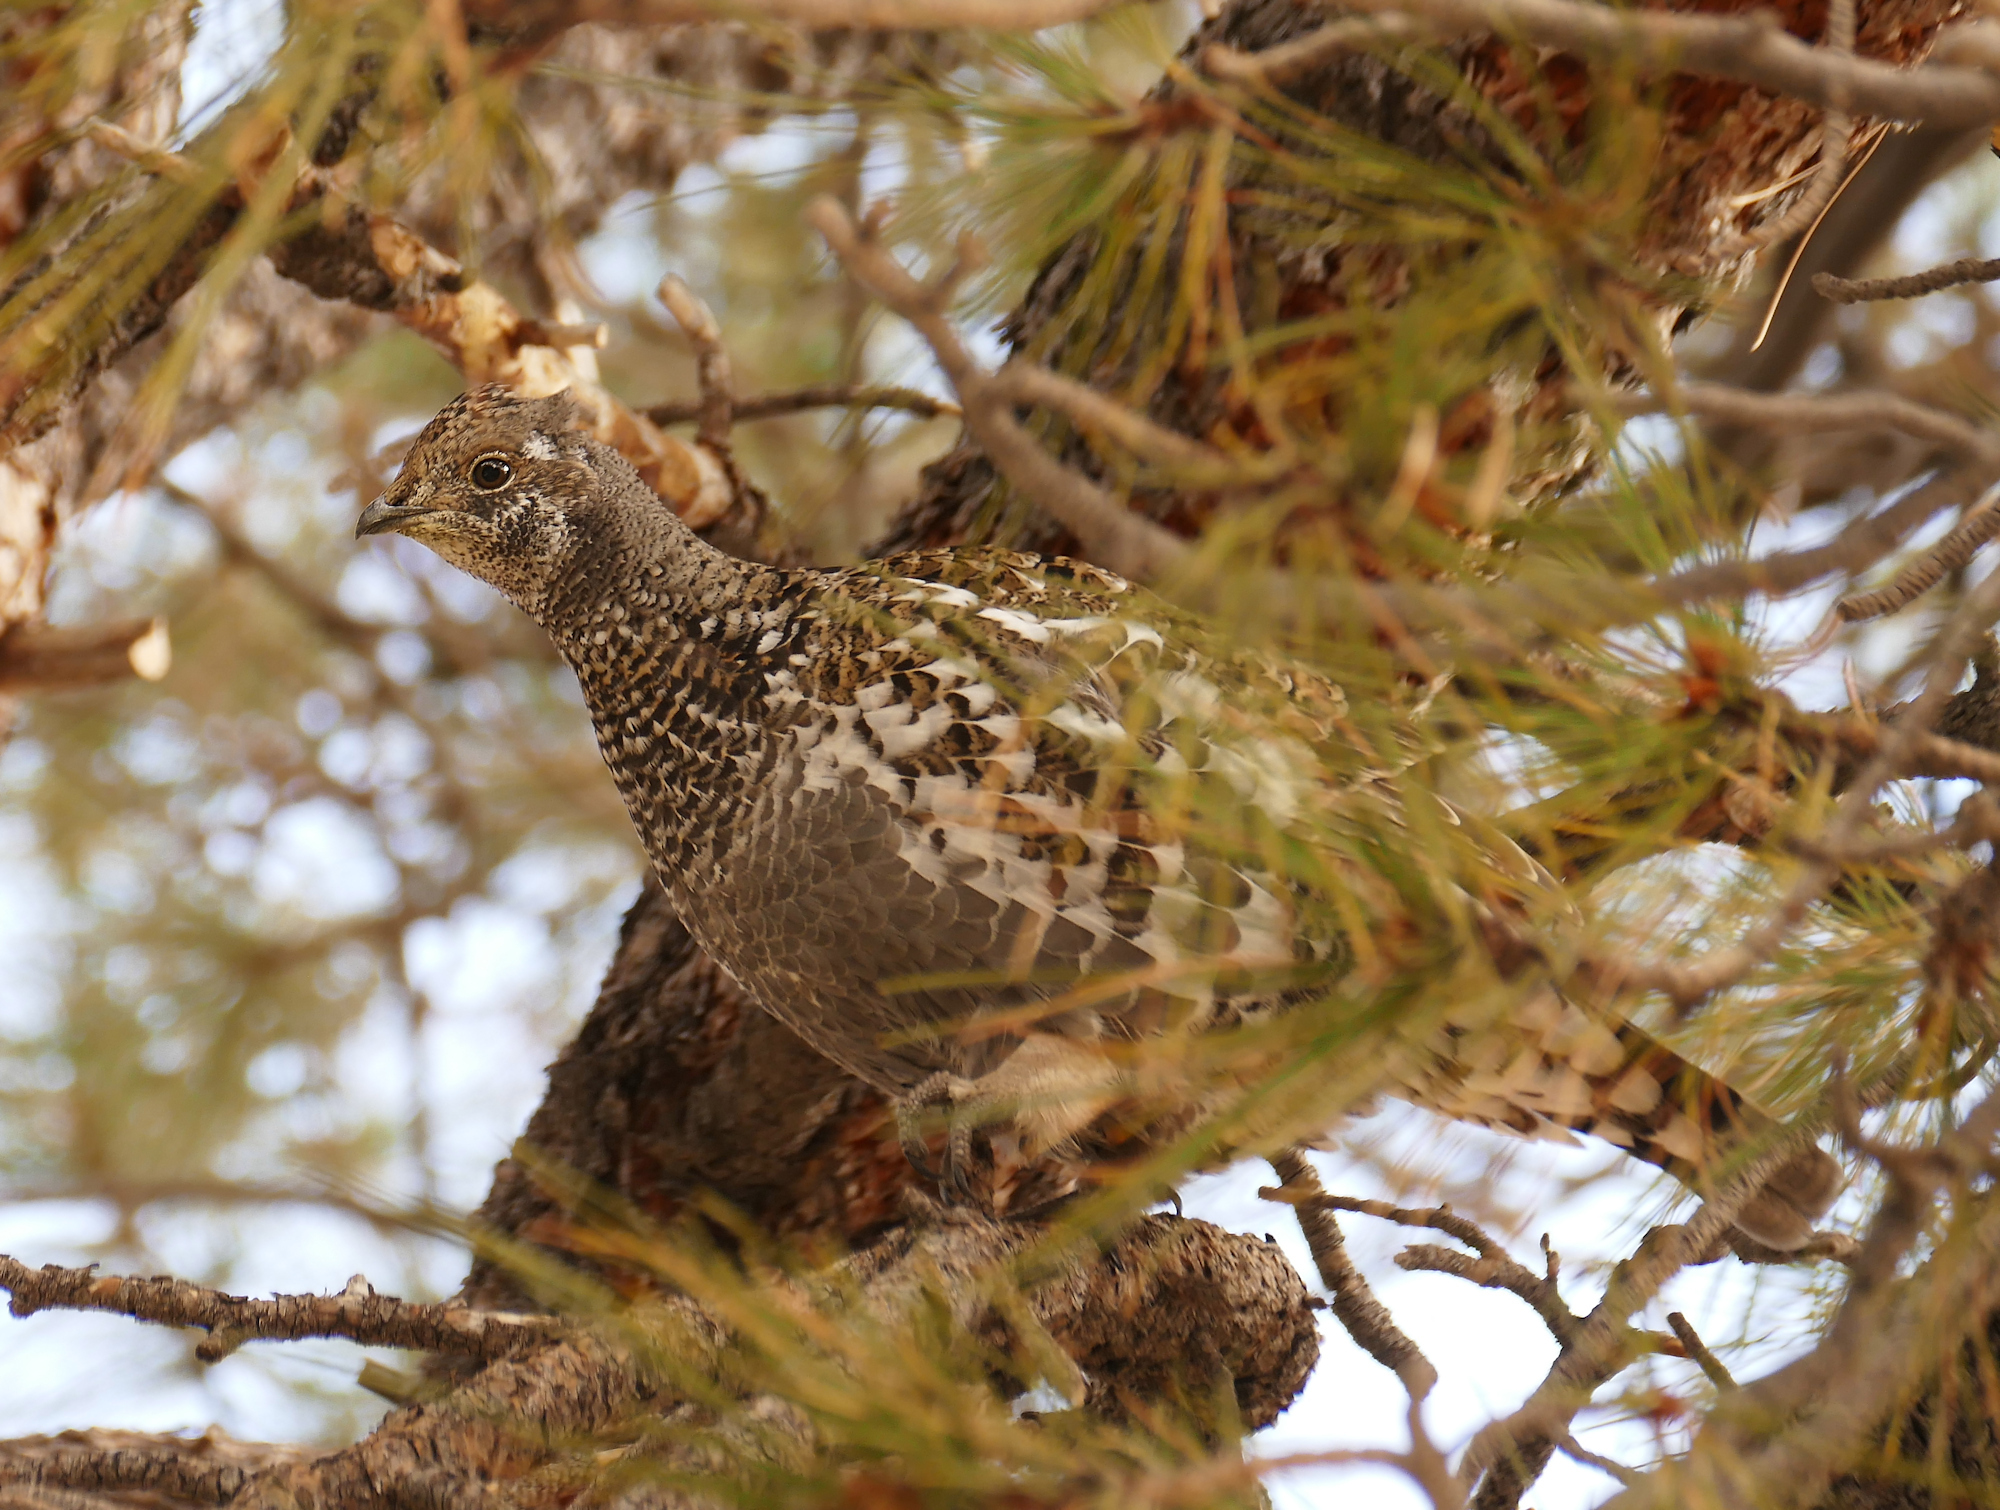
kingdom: Animalia
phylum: Chordata
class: Aves
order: Galliformes
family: Phasianidae
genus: Dendragapus
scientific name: Dendragapus obscurus
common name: Dusky grouse
